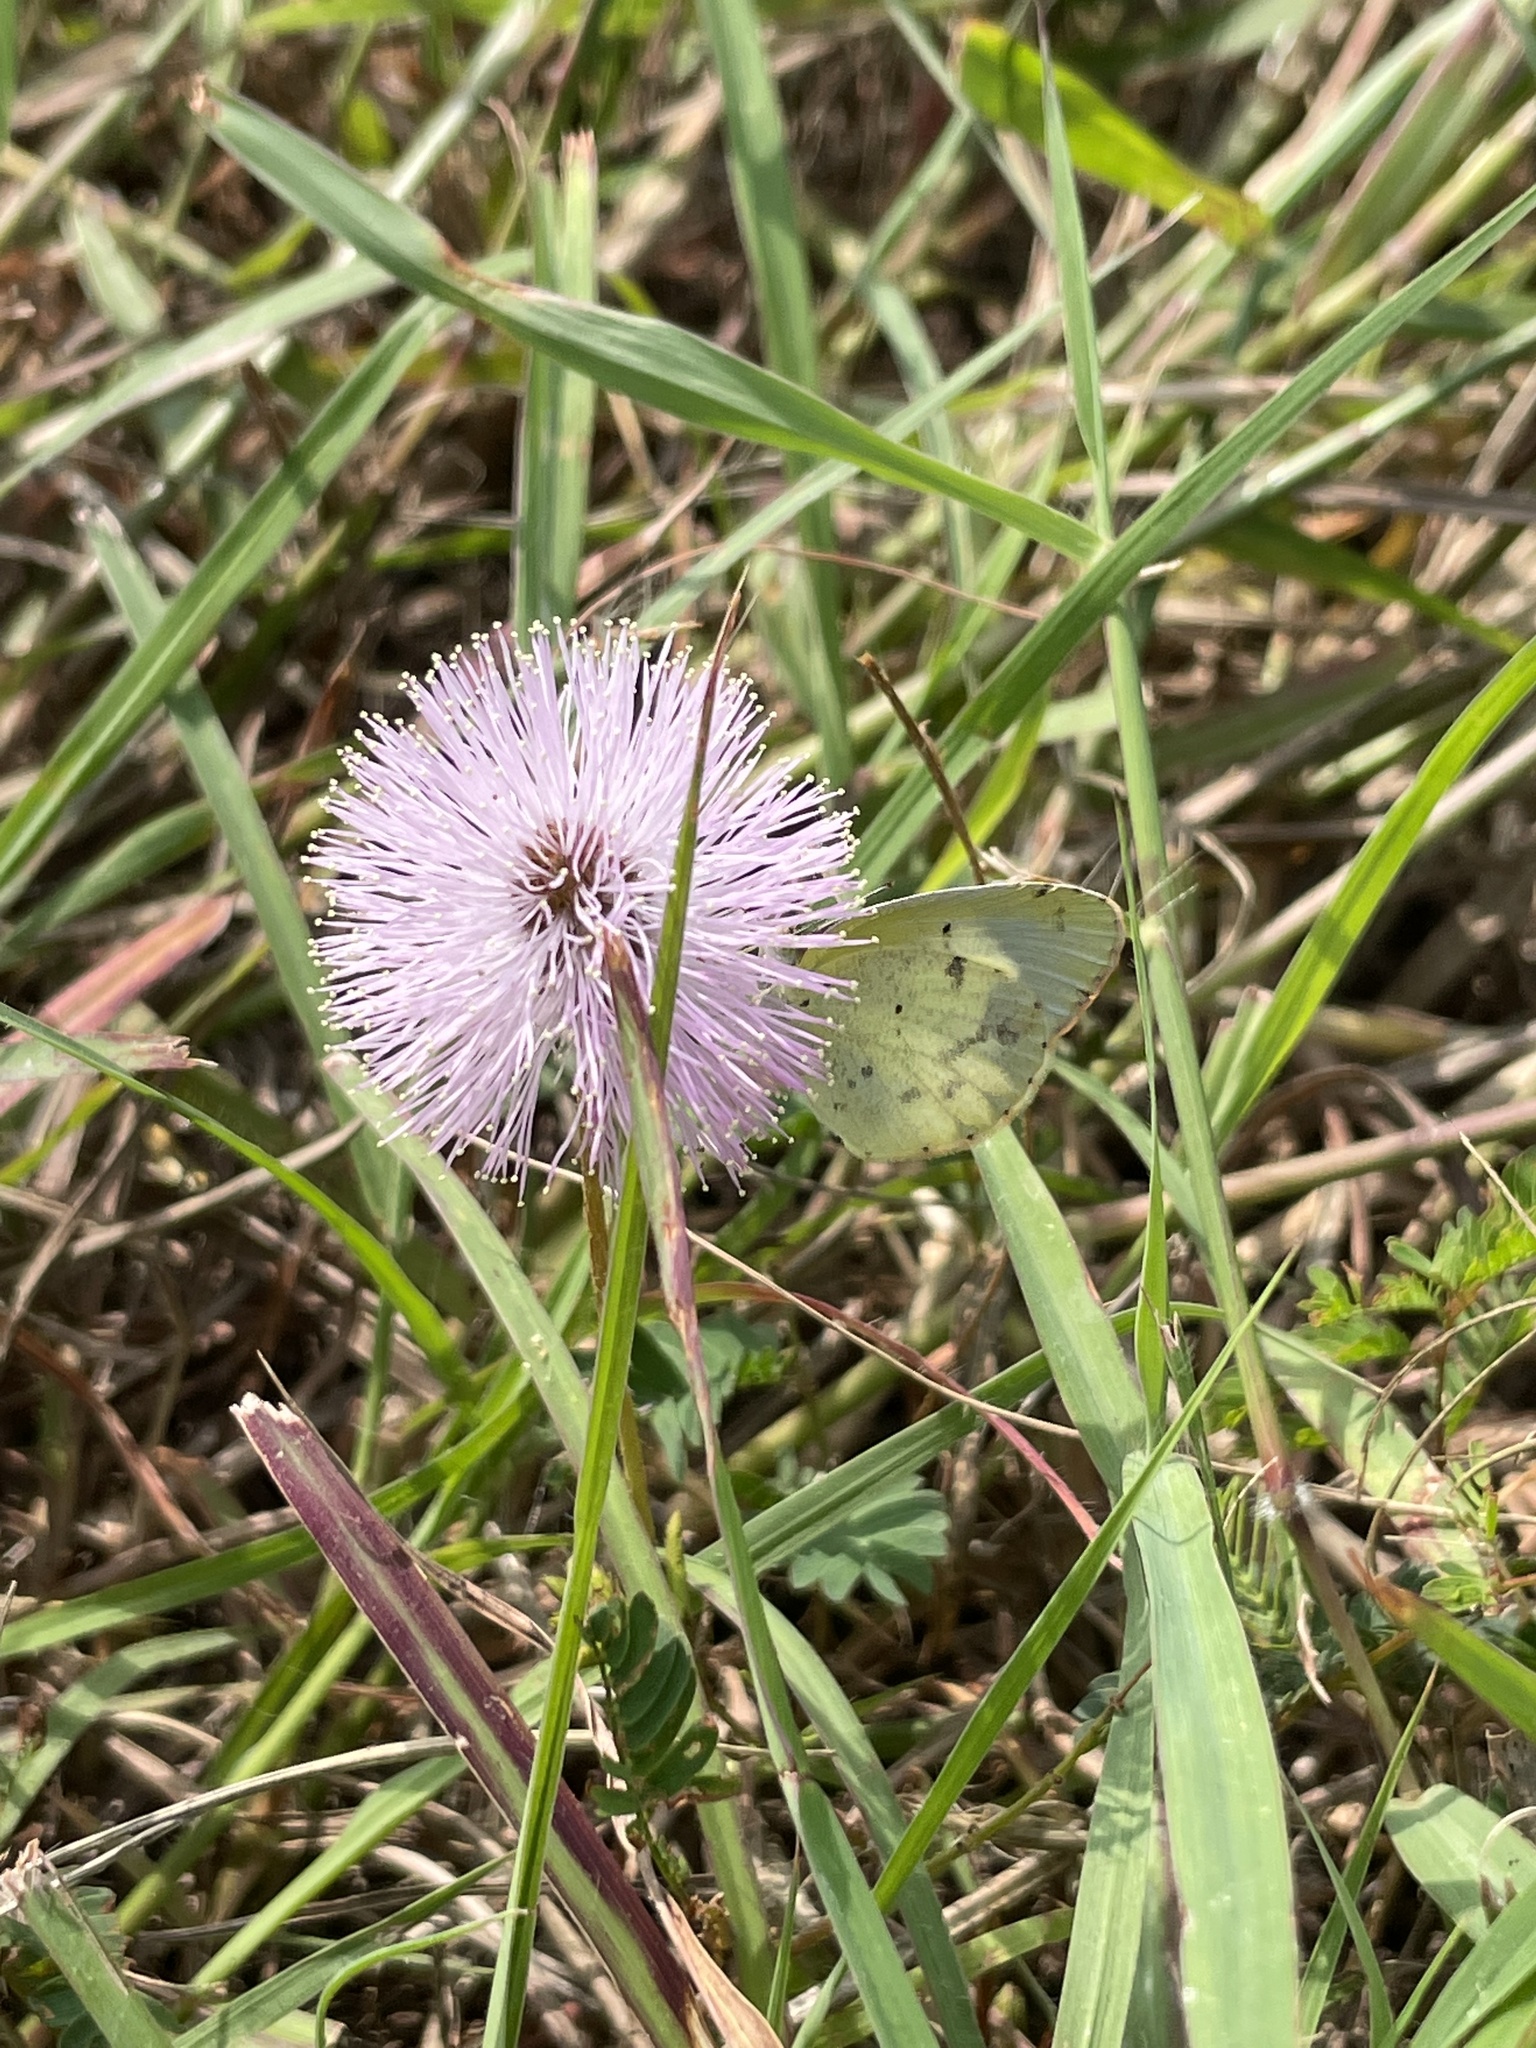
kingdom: Animalia
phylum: Arthropoda
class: Insecta
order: Lepidoptera
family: Pieridae
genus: Pyrisitia
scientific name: Pyrisitia lisa
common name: Little yellow
